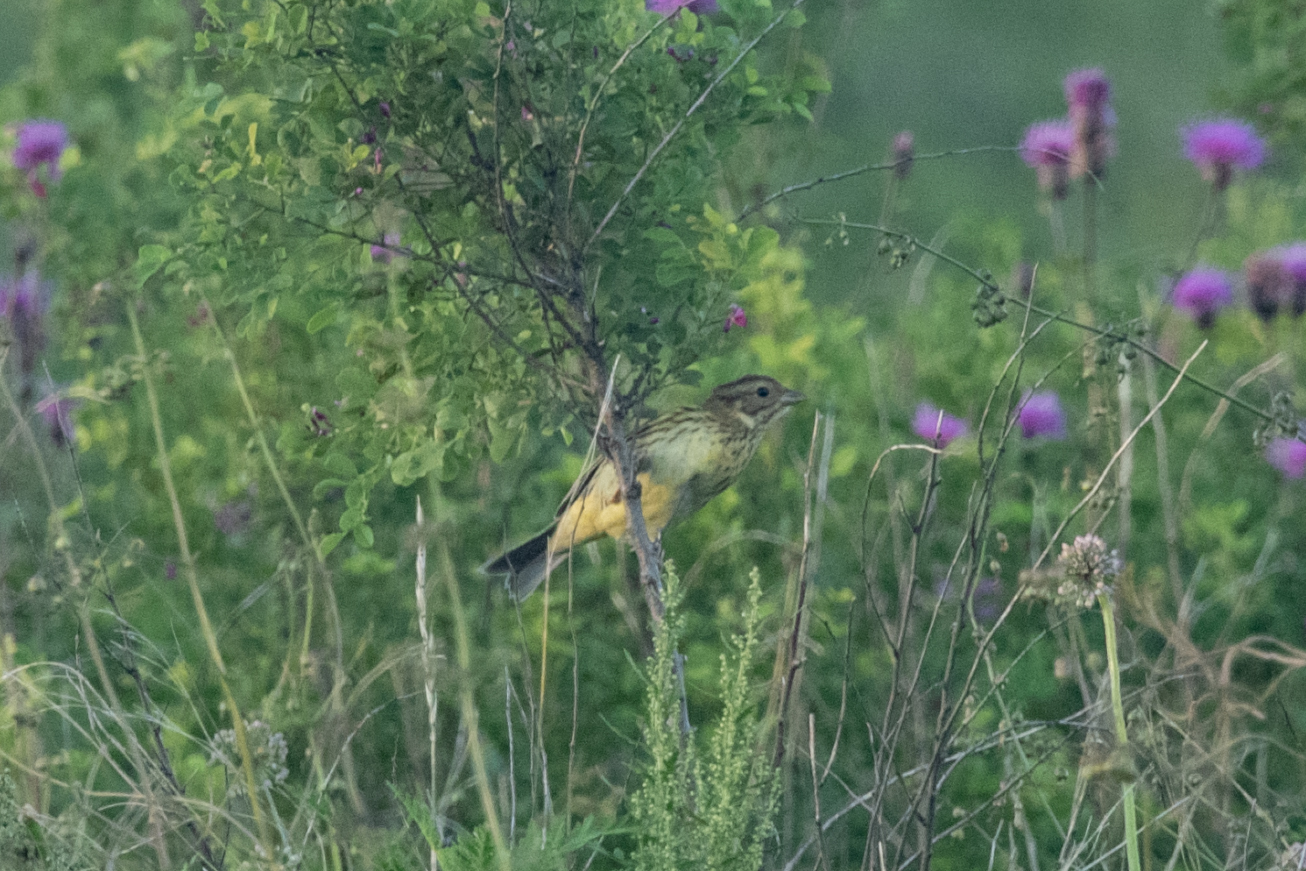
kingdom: Animalia
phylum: Chordata
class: Aves
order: Passeriformes
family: Emberizidae
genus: Emberiza
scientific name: Emberiza spodocephala
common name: Black-faced bunting
